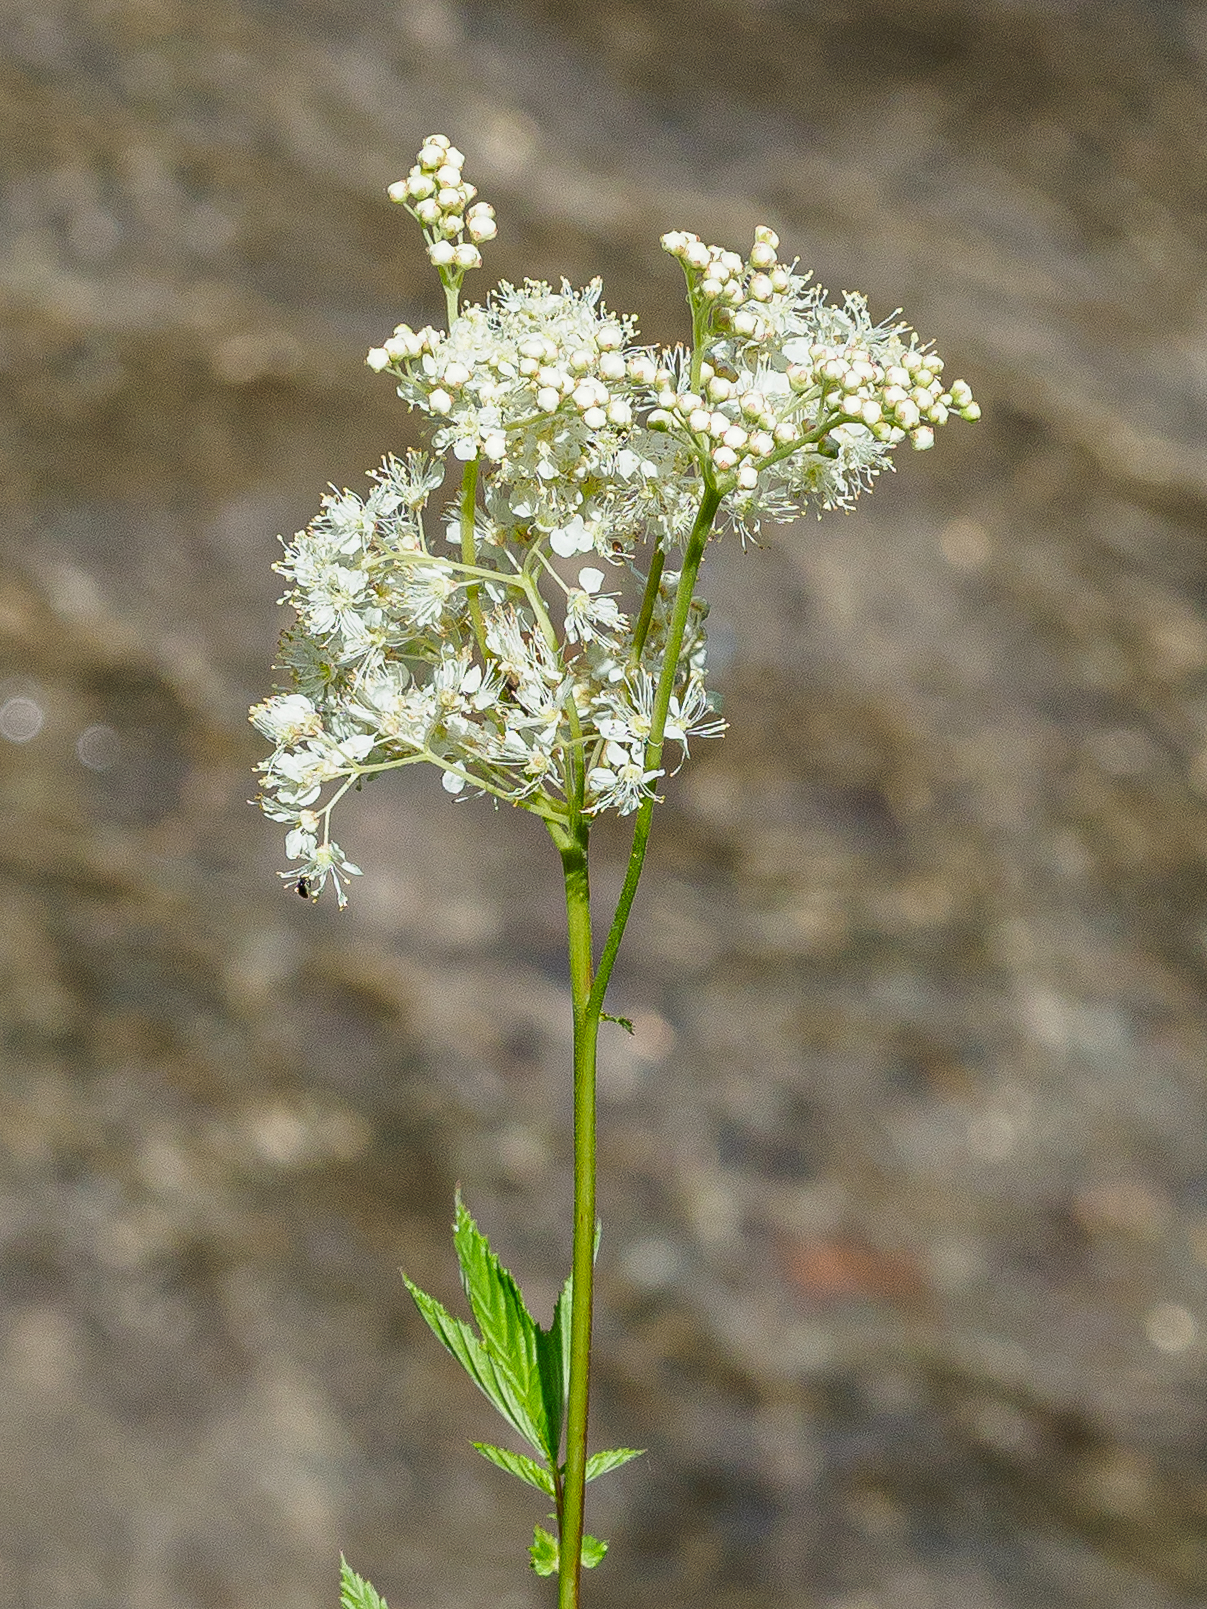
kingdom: Plantae
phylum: Tracheophyta
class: Magnoliopsida
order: Rosales
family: Rosaceae
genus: Filipendula
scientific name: Filipendula ulmaria
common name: Meadowsweet
